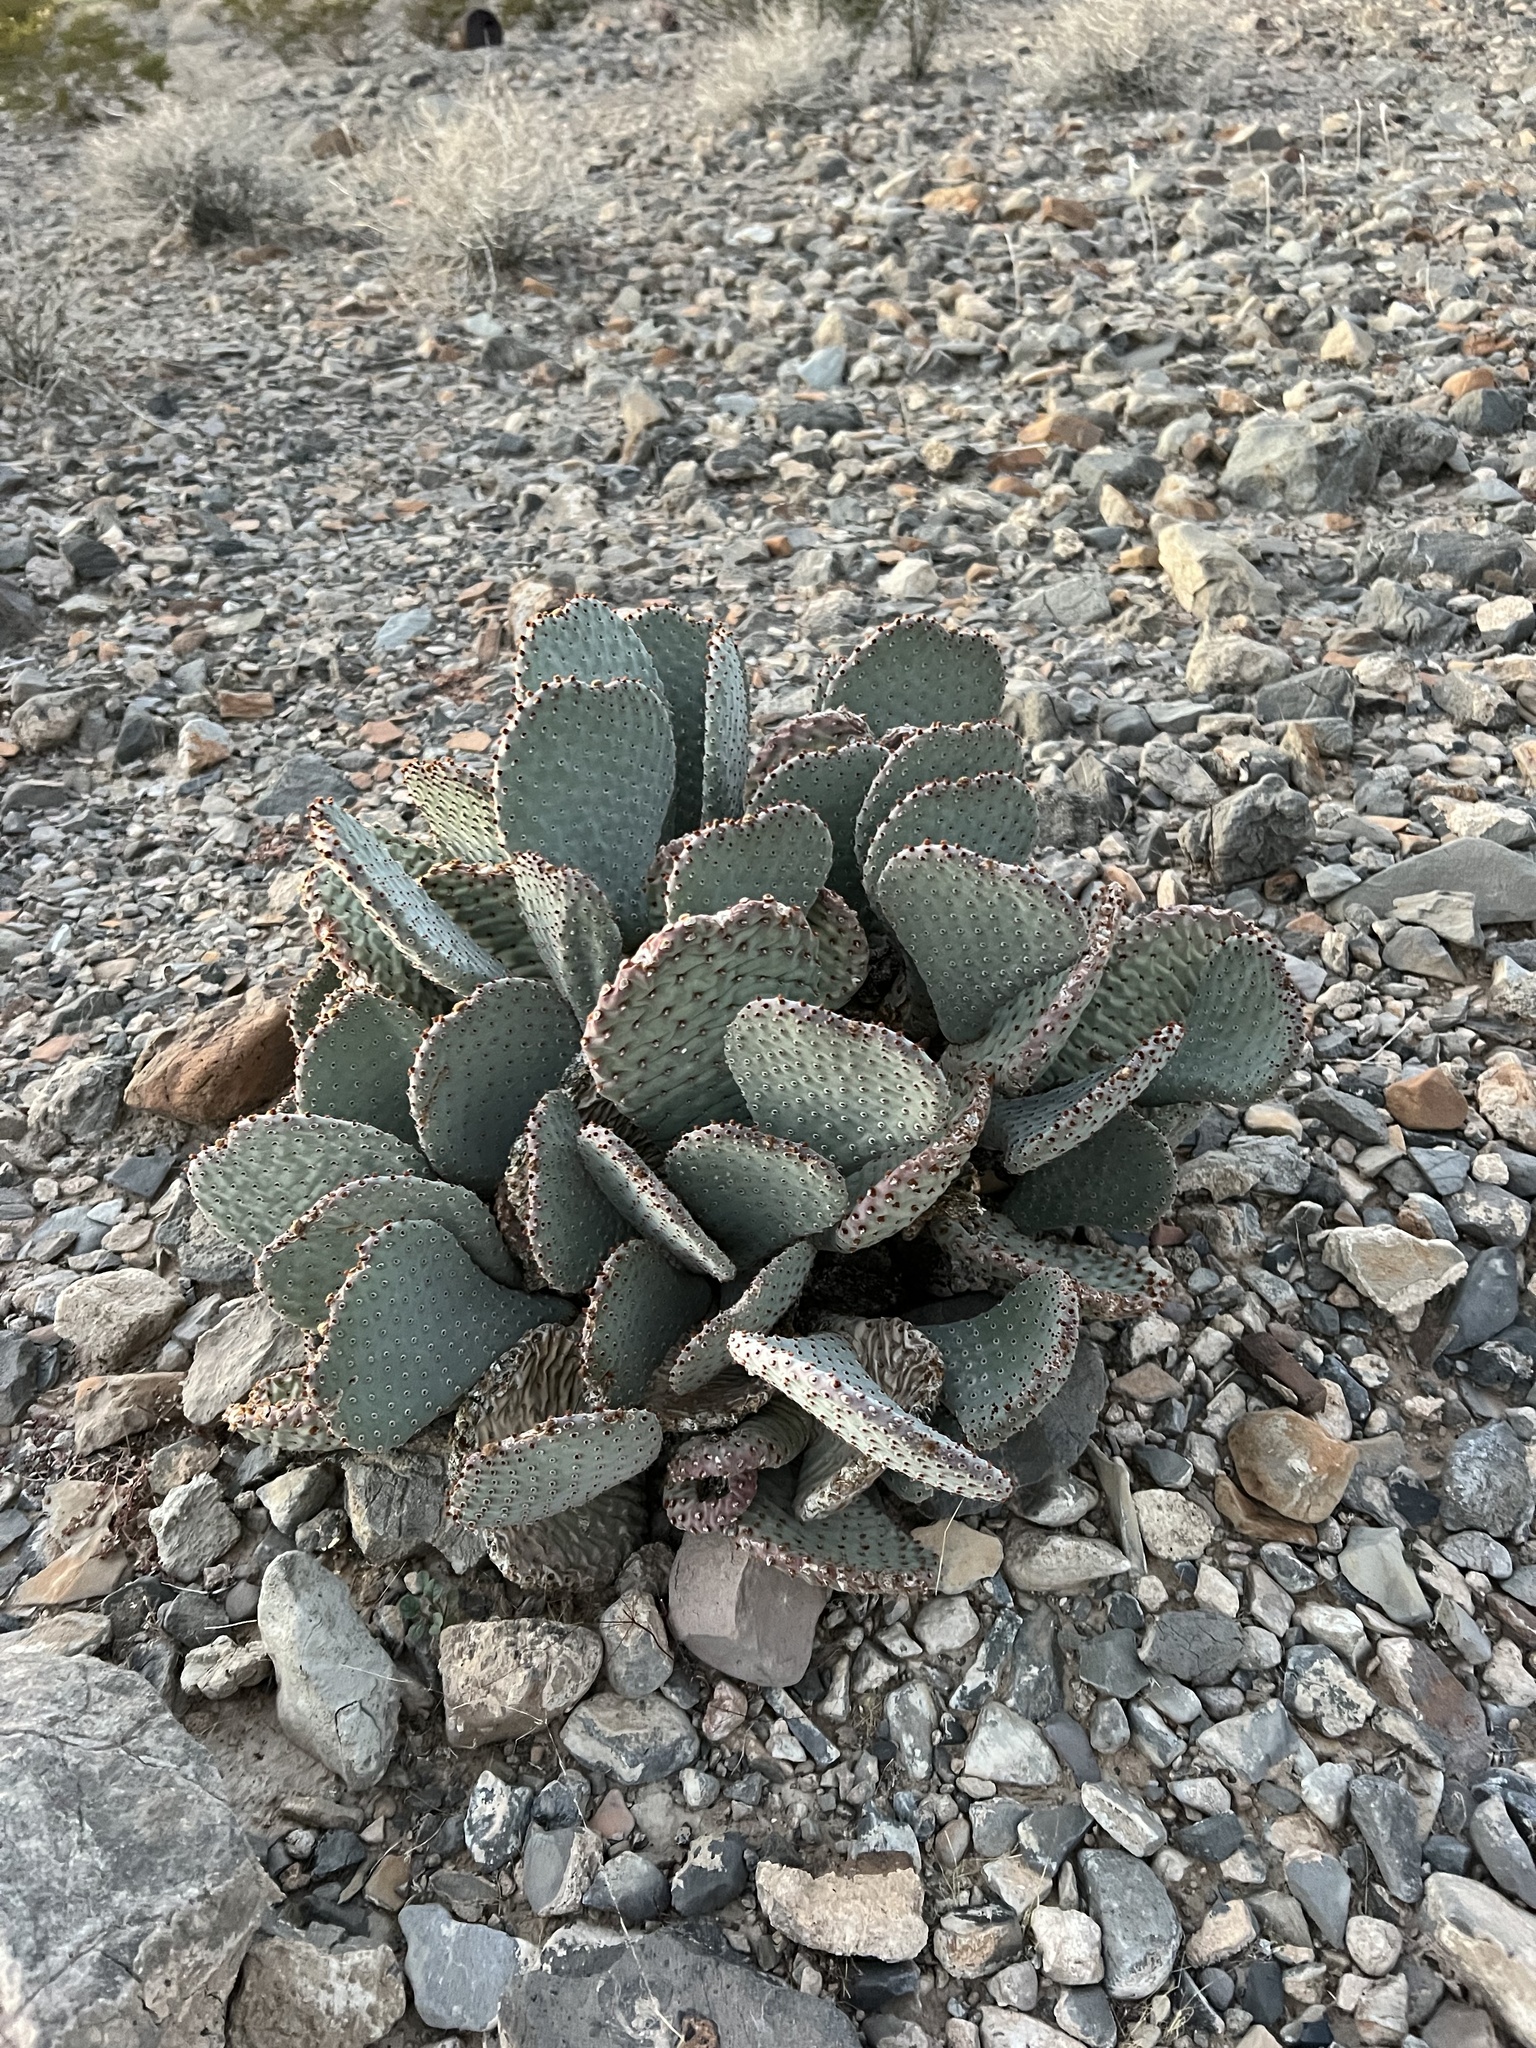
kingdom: Plantae
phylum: Tracheophyta
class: Magnoliopsida
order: Caryophyllales
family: Cactaceae
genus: Opuntia
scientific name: Opuntia basilaris
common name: Beavertail prickly-pear
